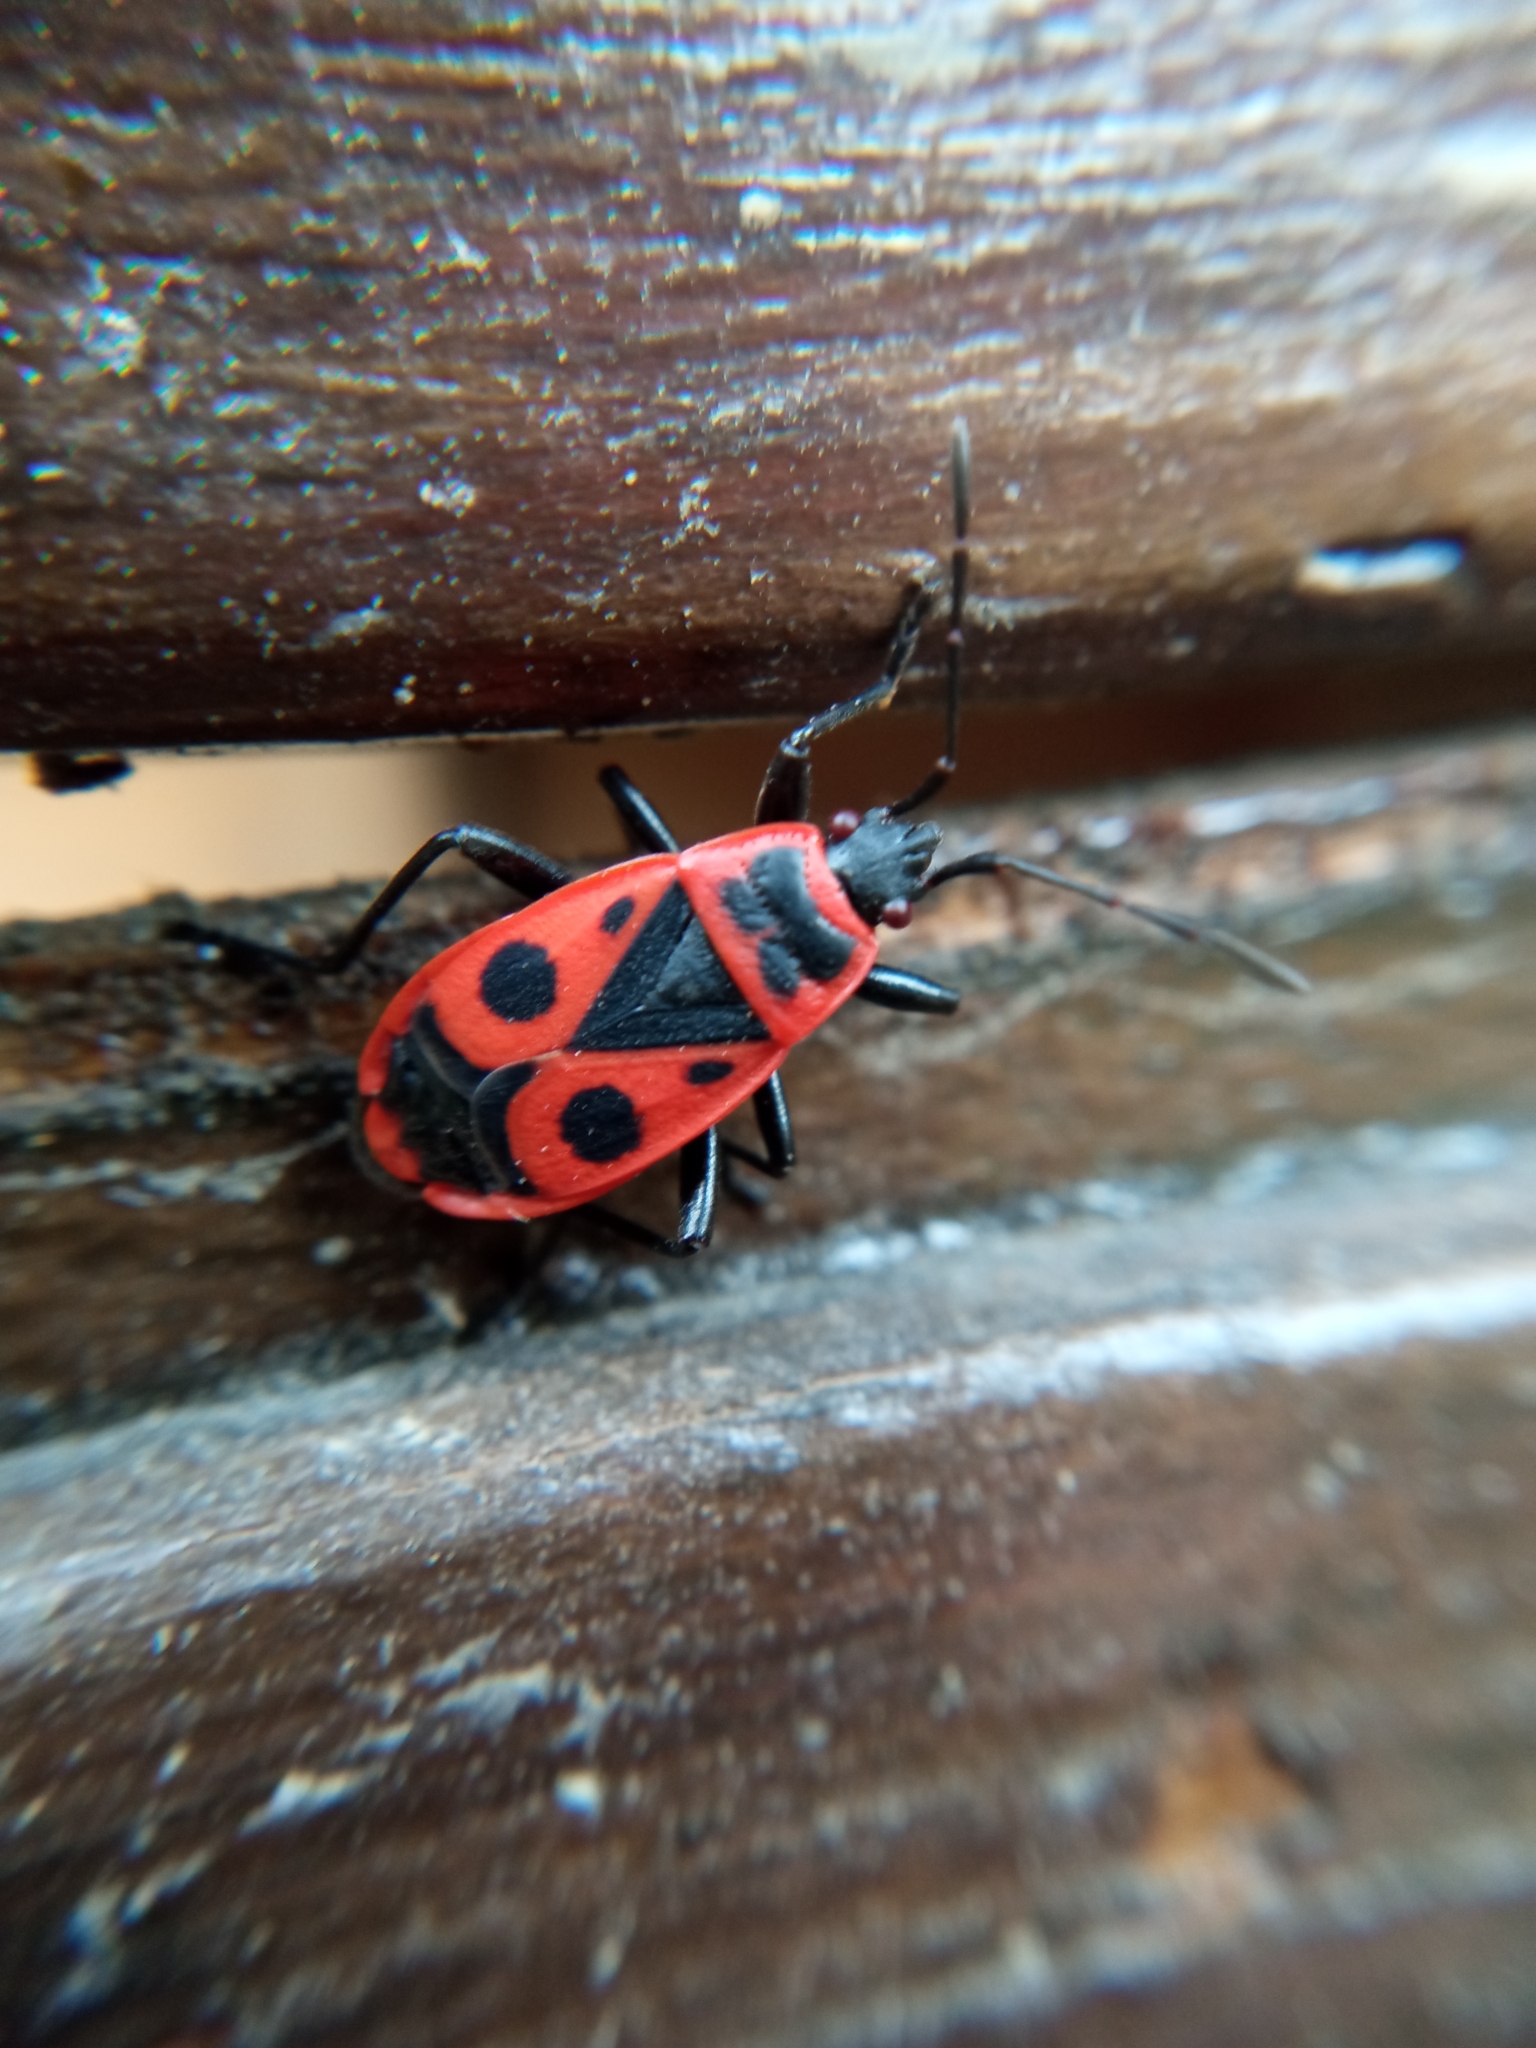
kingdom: Animalia
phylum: Arthropoda
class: Insecta
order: Hemiptera
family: Pyrrhocoridae
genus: Pyrrhocoris
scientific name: Pyrrhocoris apterus
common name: Firebug
